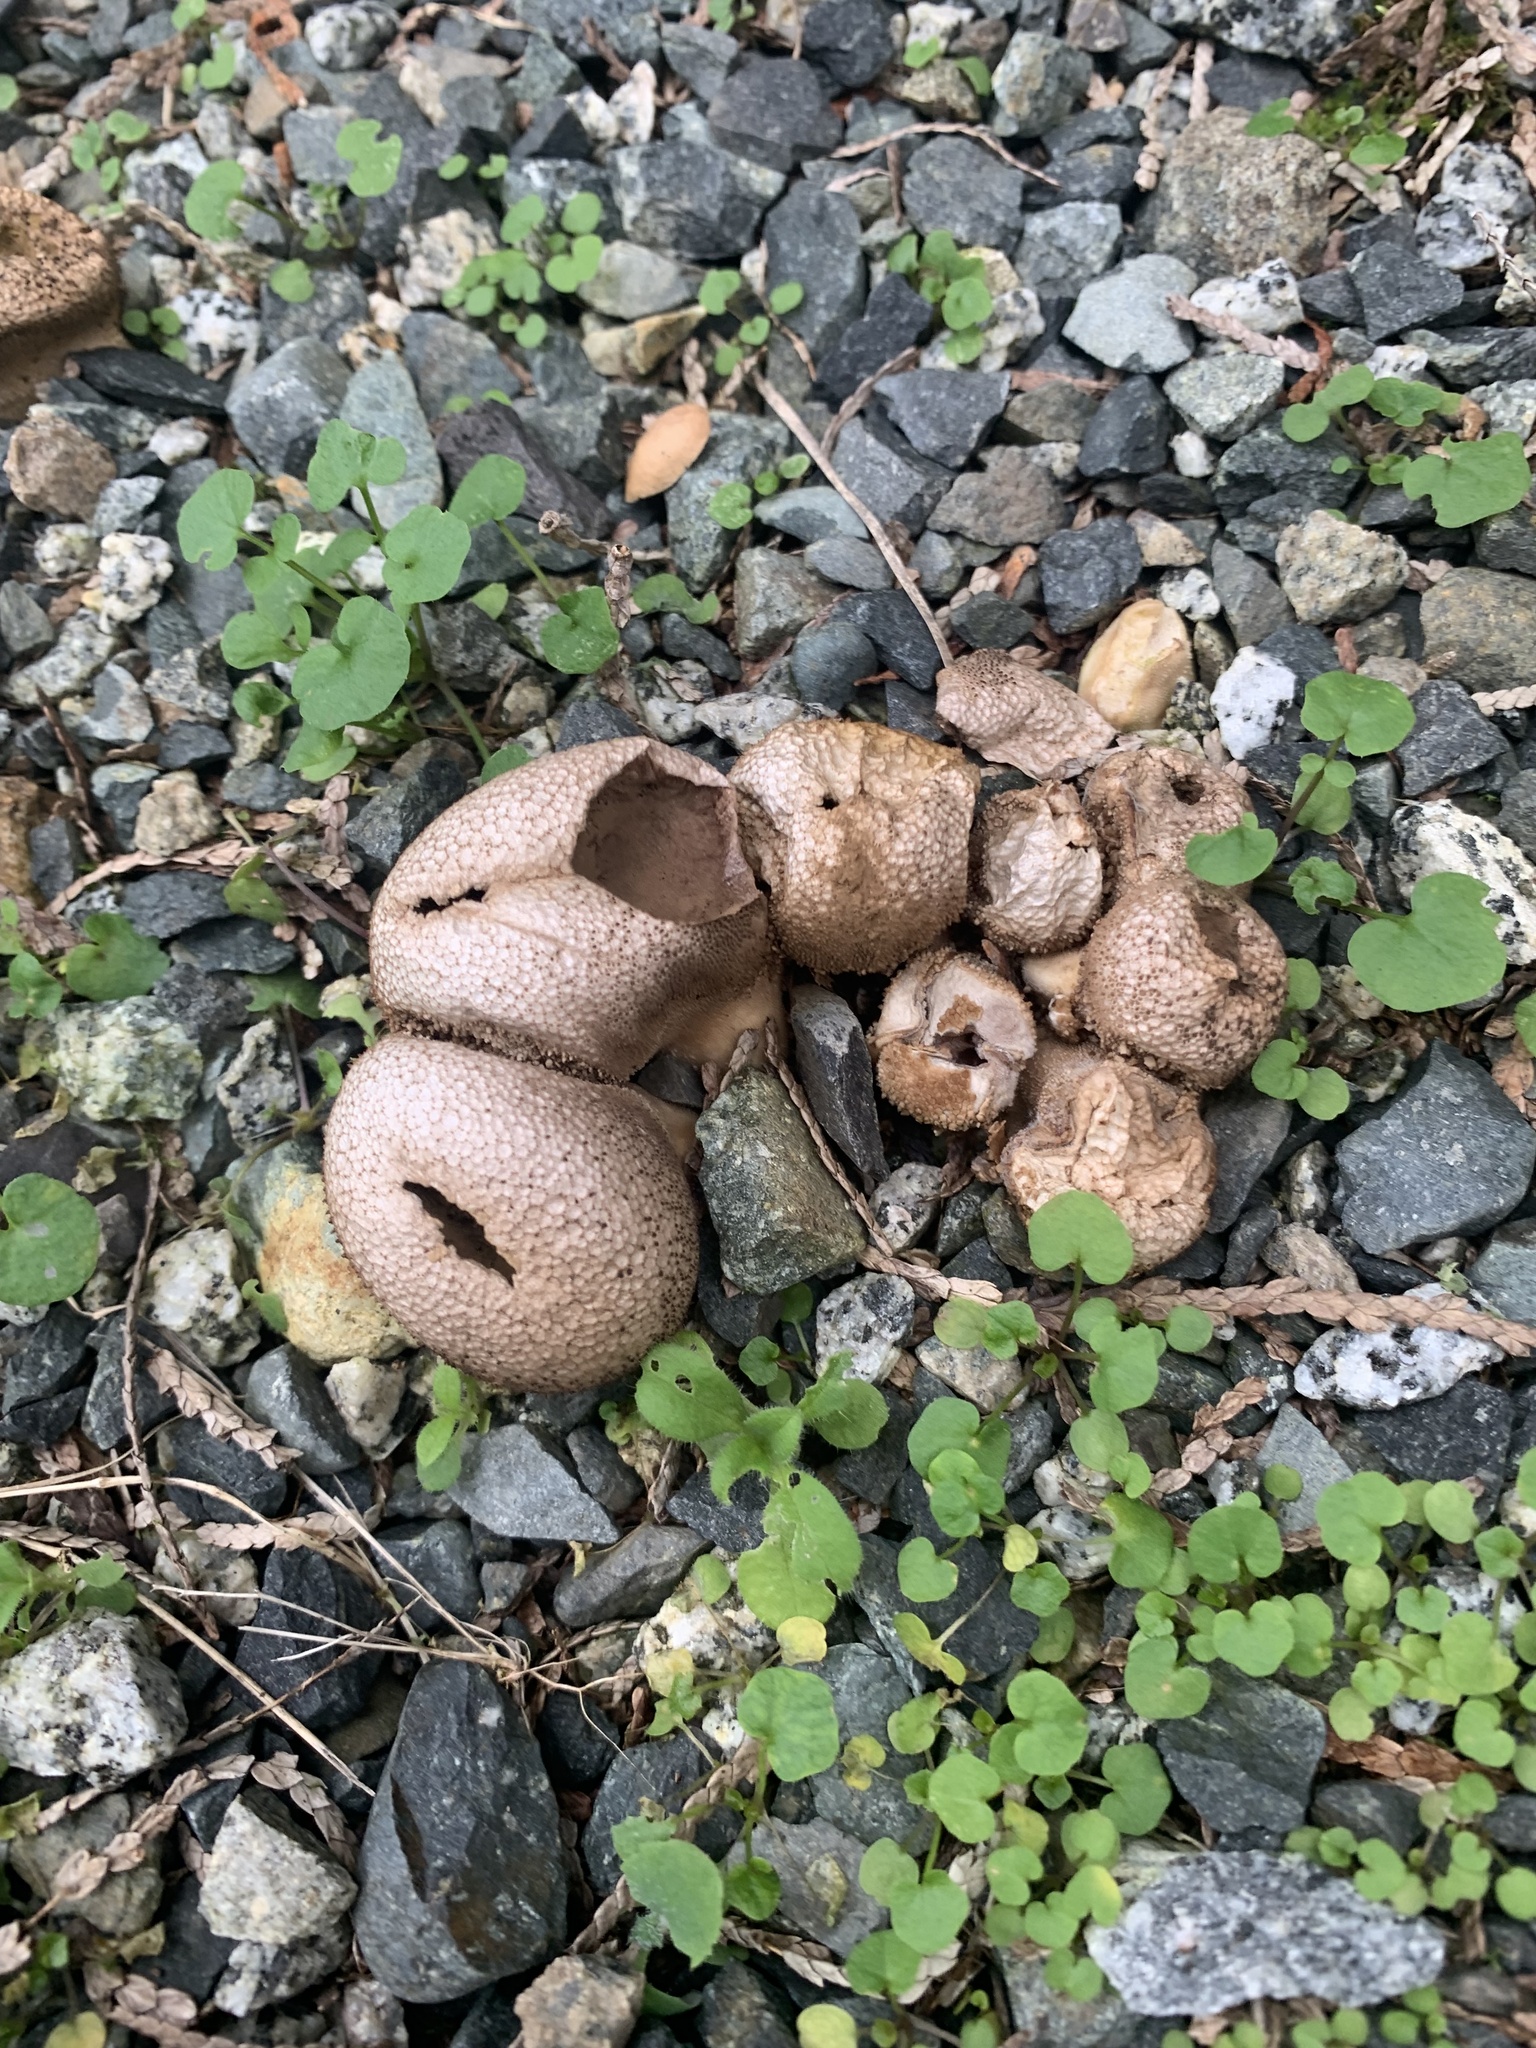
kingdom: Fungi
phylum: Basidiomycota
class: Agaricomycetes
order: Agaricales
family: Lycoperdaceae
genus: Apioperdon
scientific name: Apioperdon pyriforme
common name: Pear-shaped puffball
